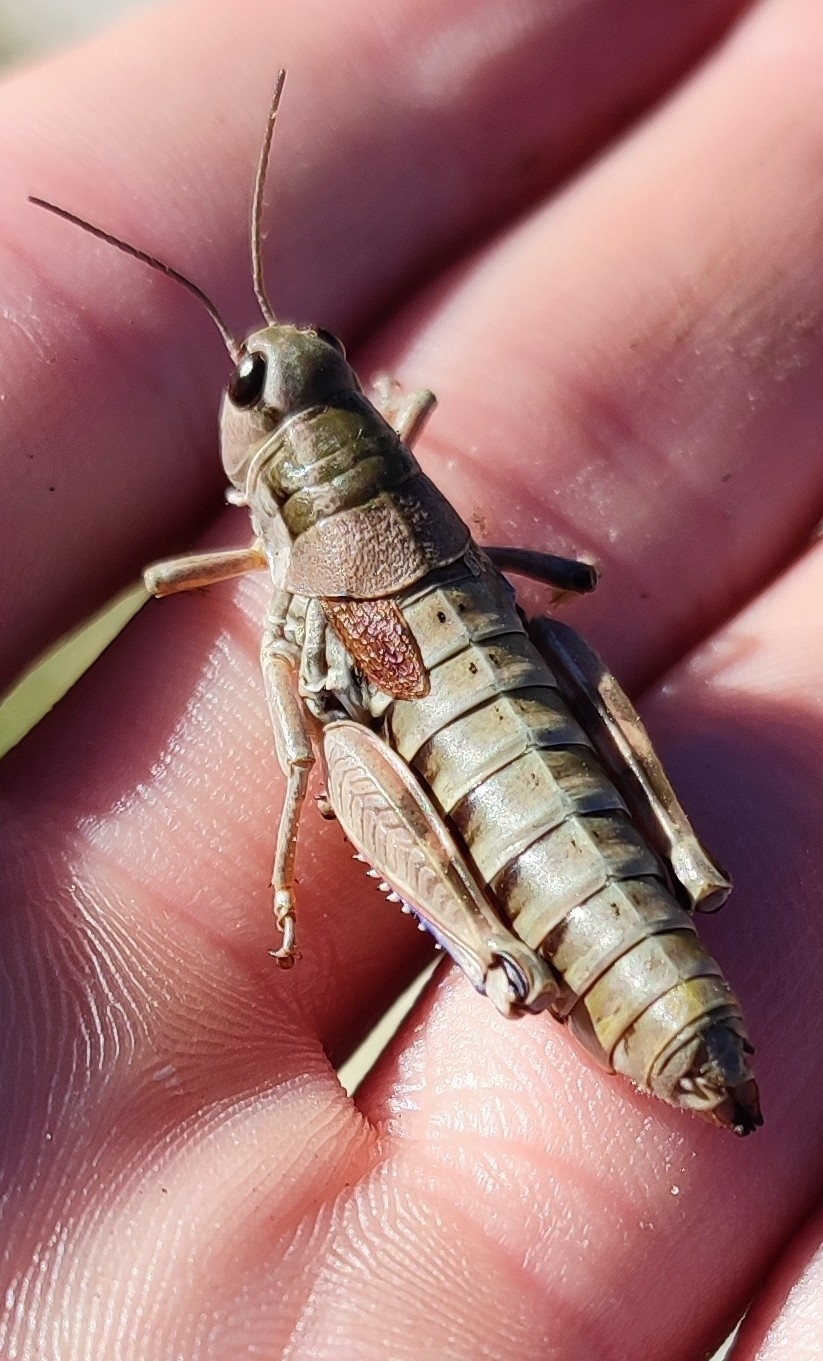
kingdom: Animalia
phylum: Arthropoda
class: Insecta
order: Orthoptera
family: Acrididae
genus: Podisma
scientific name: Podisma amedegnatoae
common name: Ventoux mountain grasshopper
